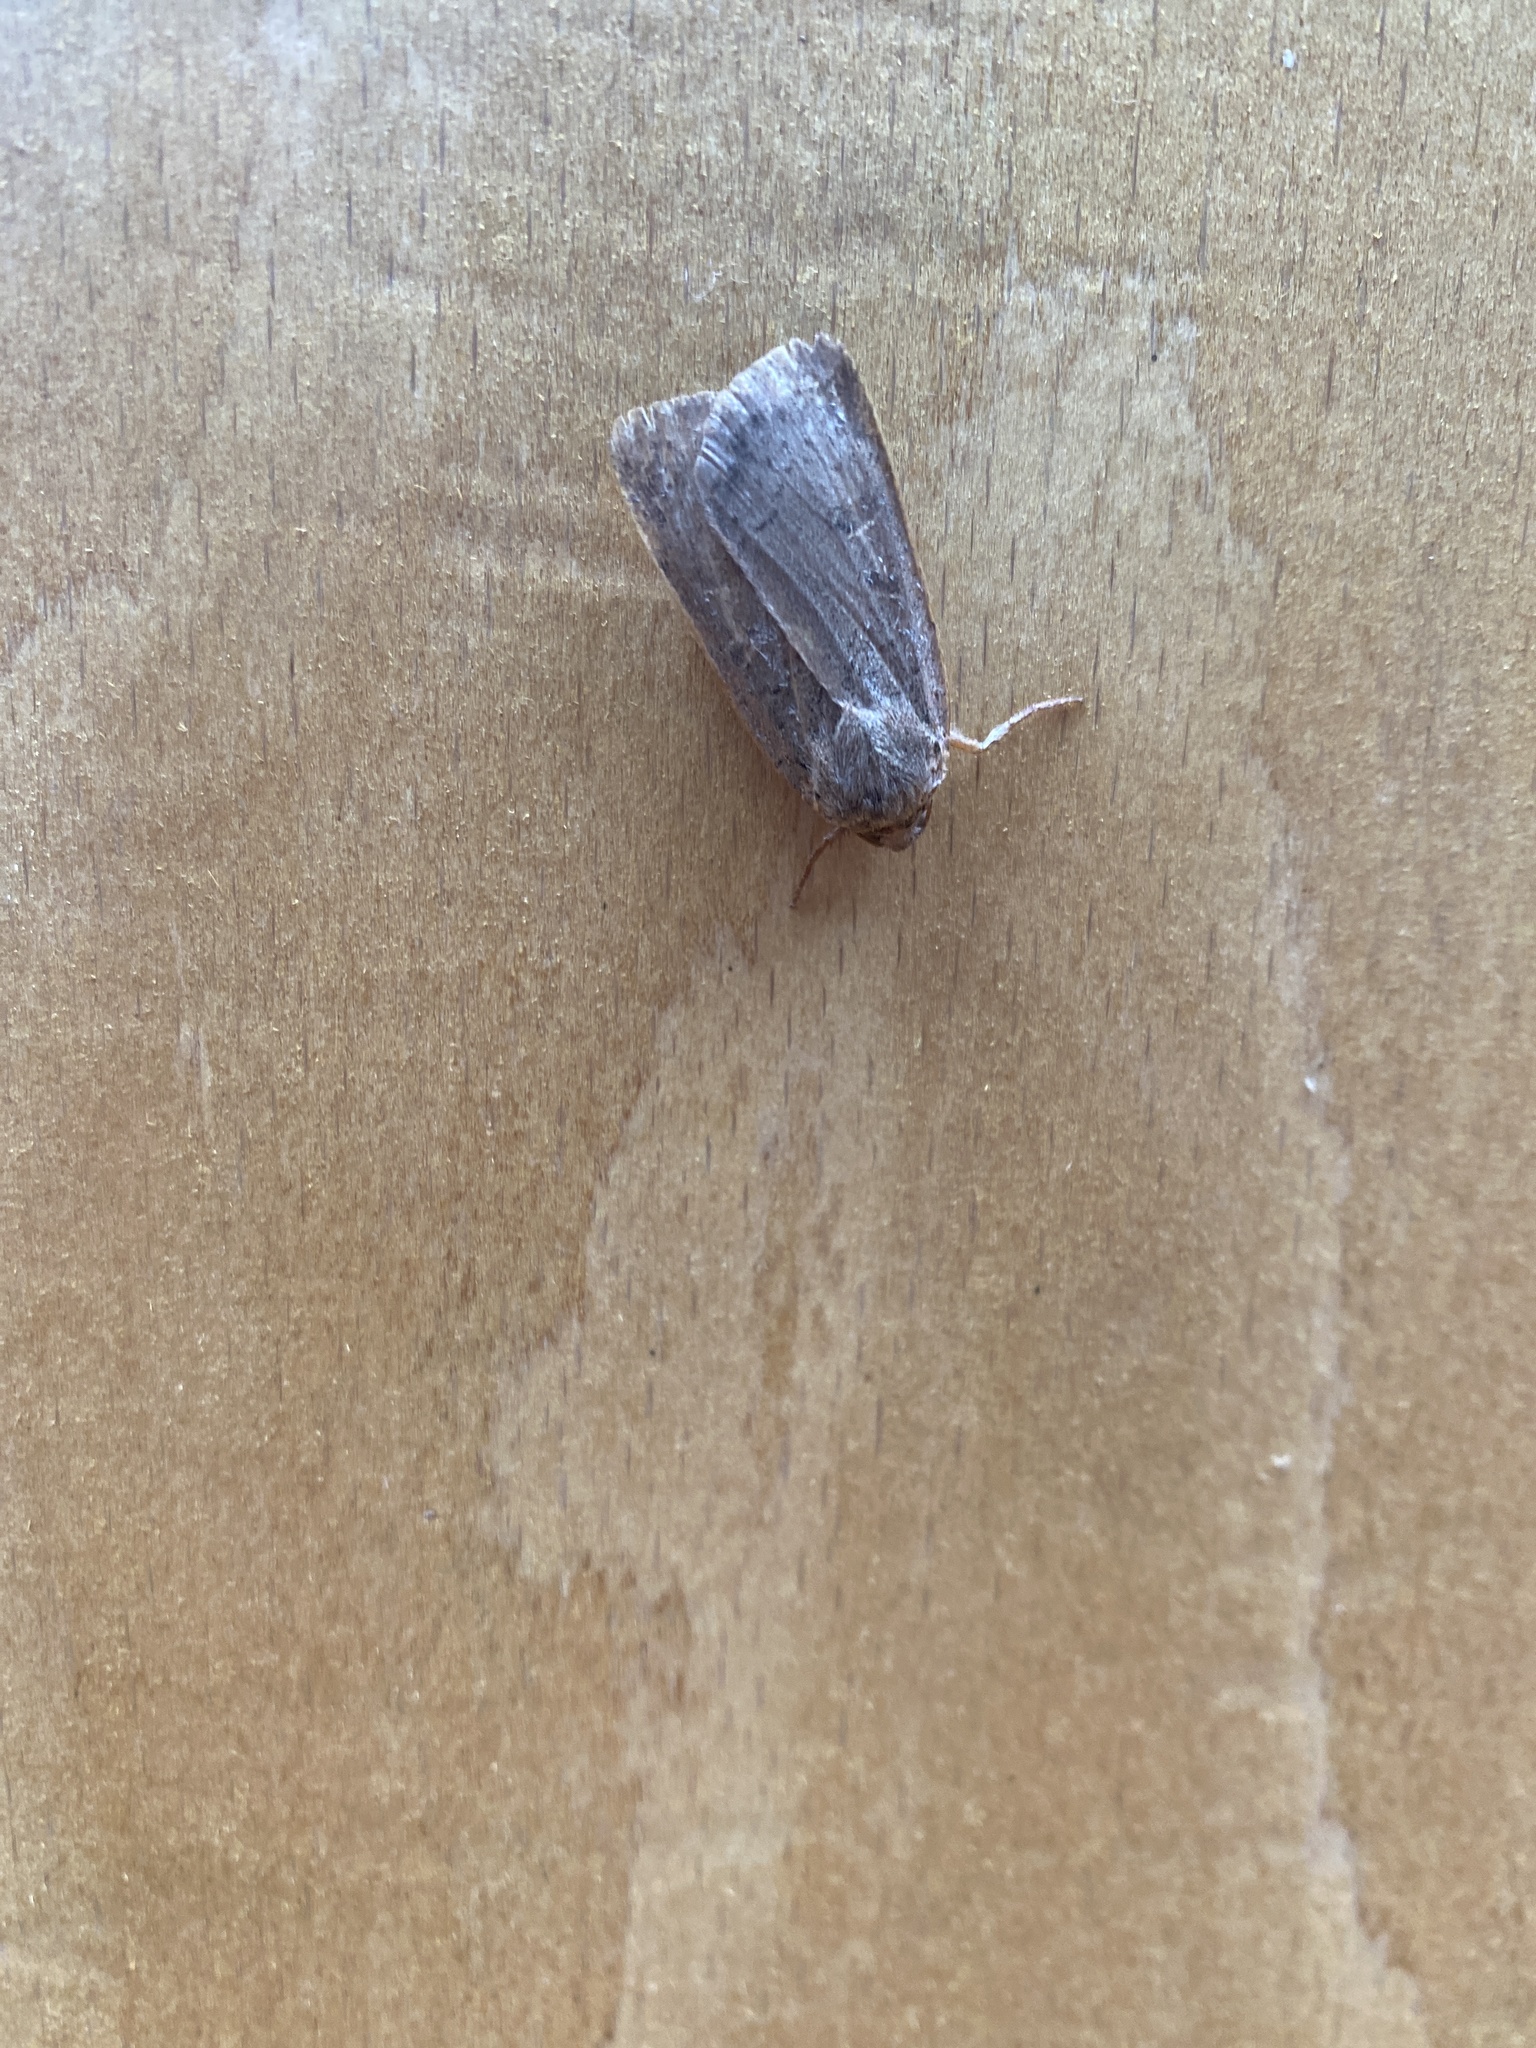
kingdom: Animalia
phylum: Arthropoda
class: Insecta
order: Lepidoptera
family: Noctuidae
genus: Noctua
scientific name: Noctua comes
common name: Lesser yellow underwing
